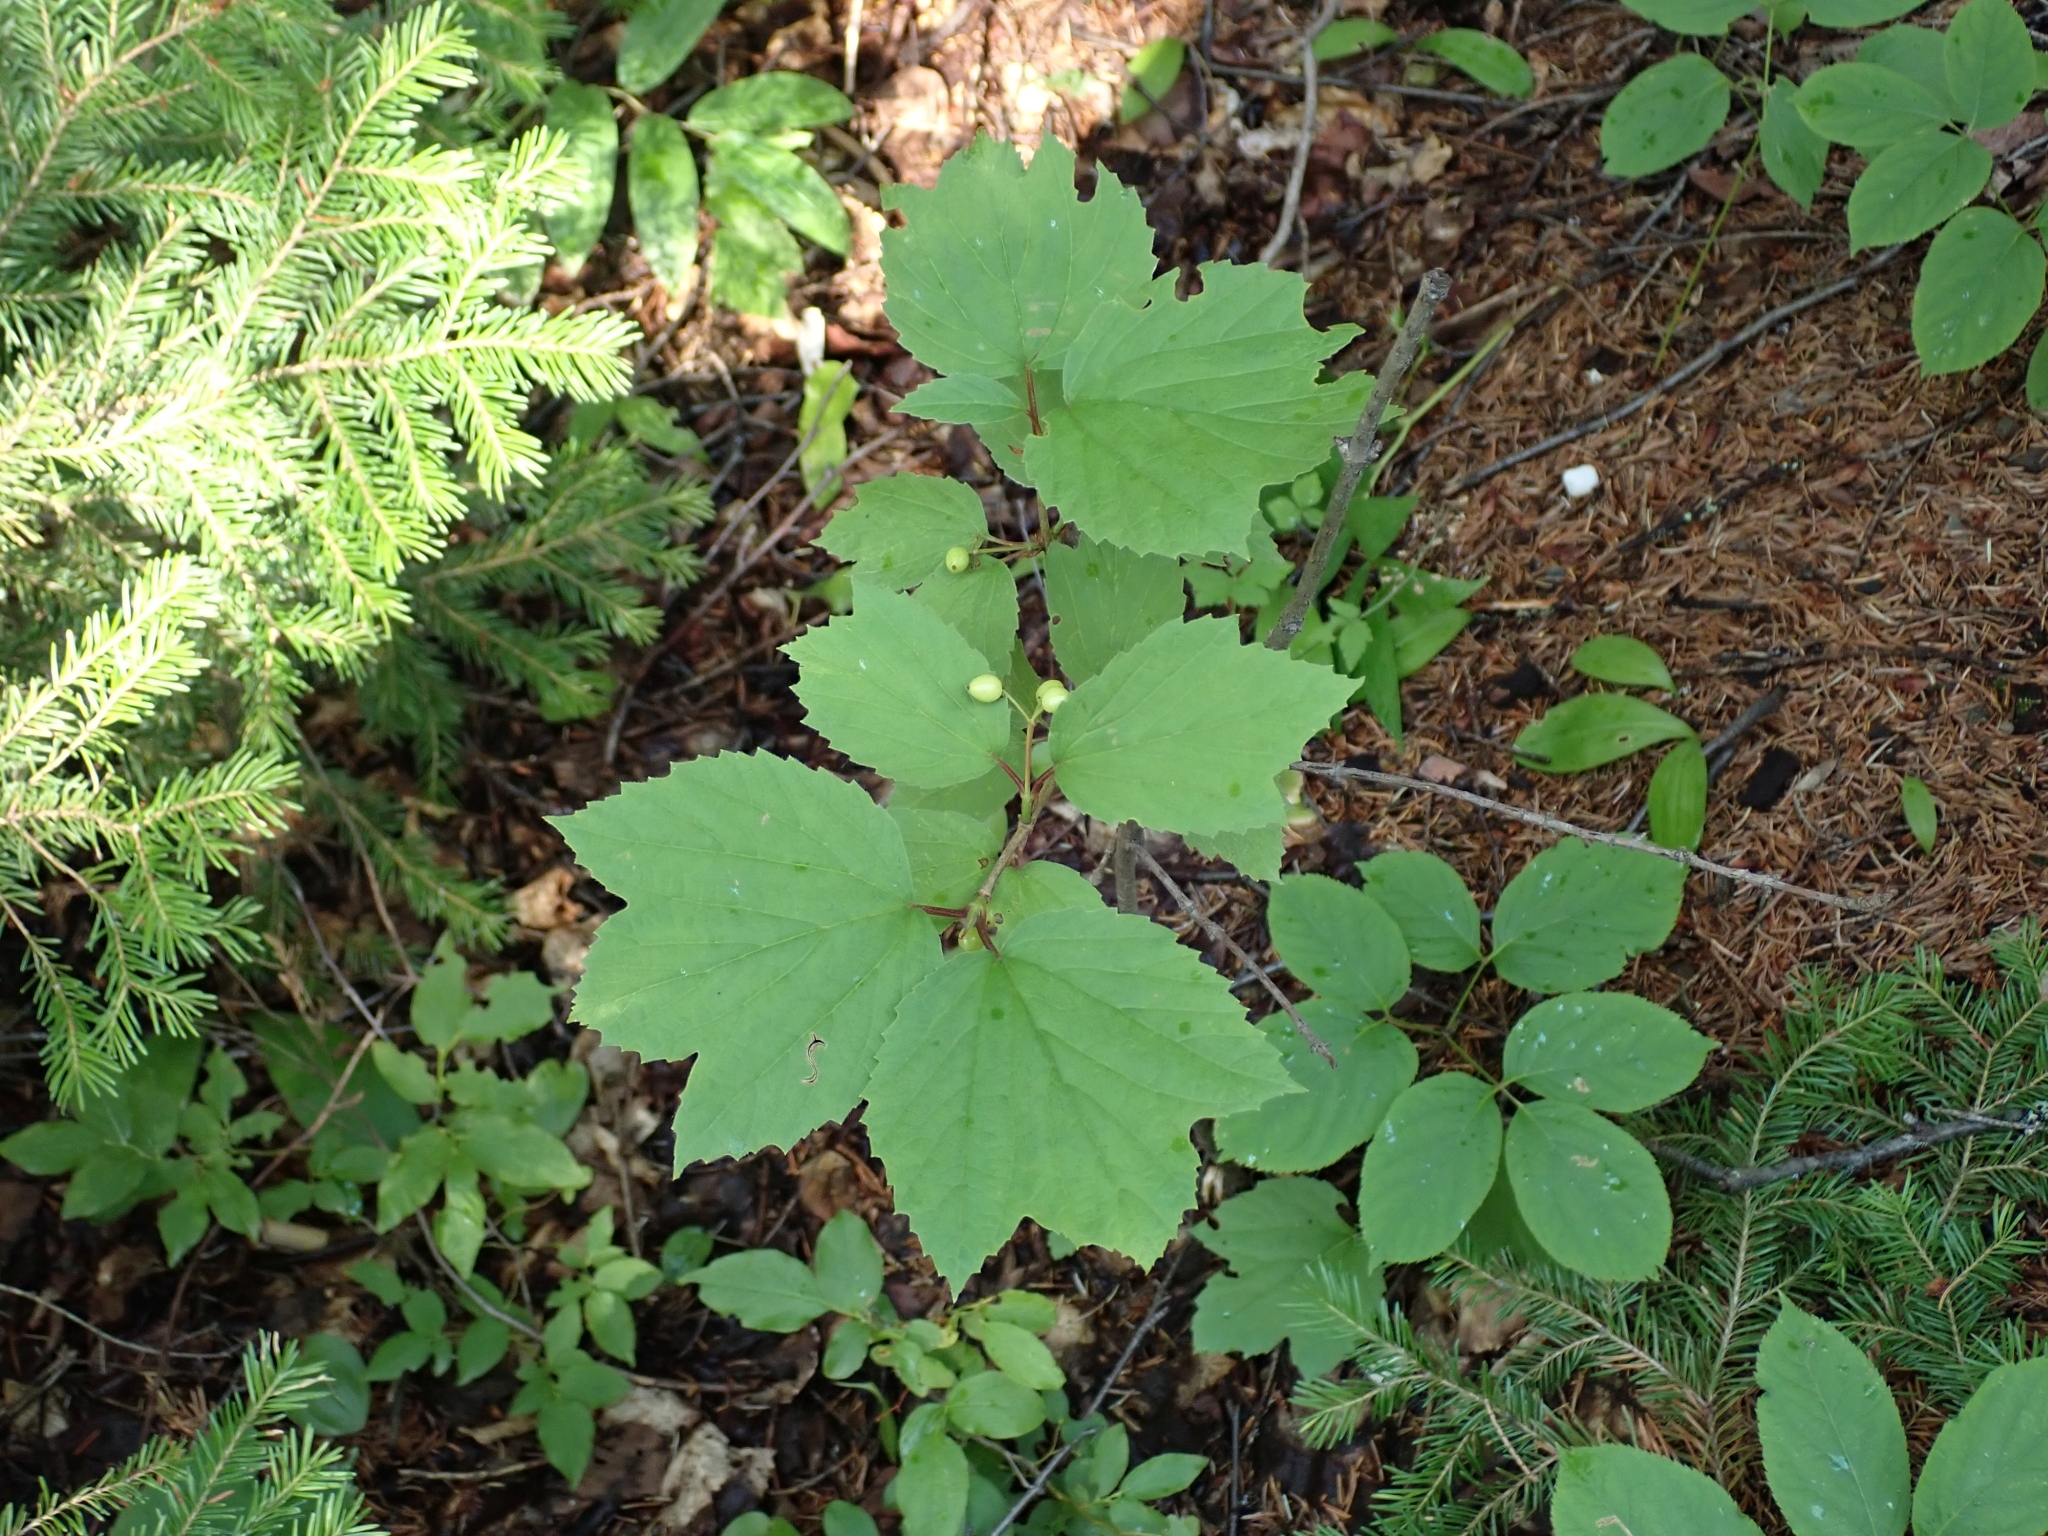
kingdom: Plantae
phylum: Tracheophyta
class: Magnoliopsida
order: Dipsacales
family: Viburnaceae
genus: Viburnum
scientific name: Viburnum edule
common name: Mooseberry
